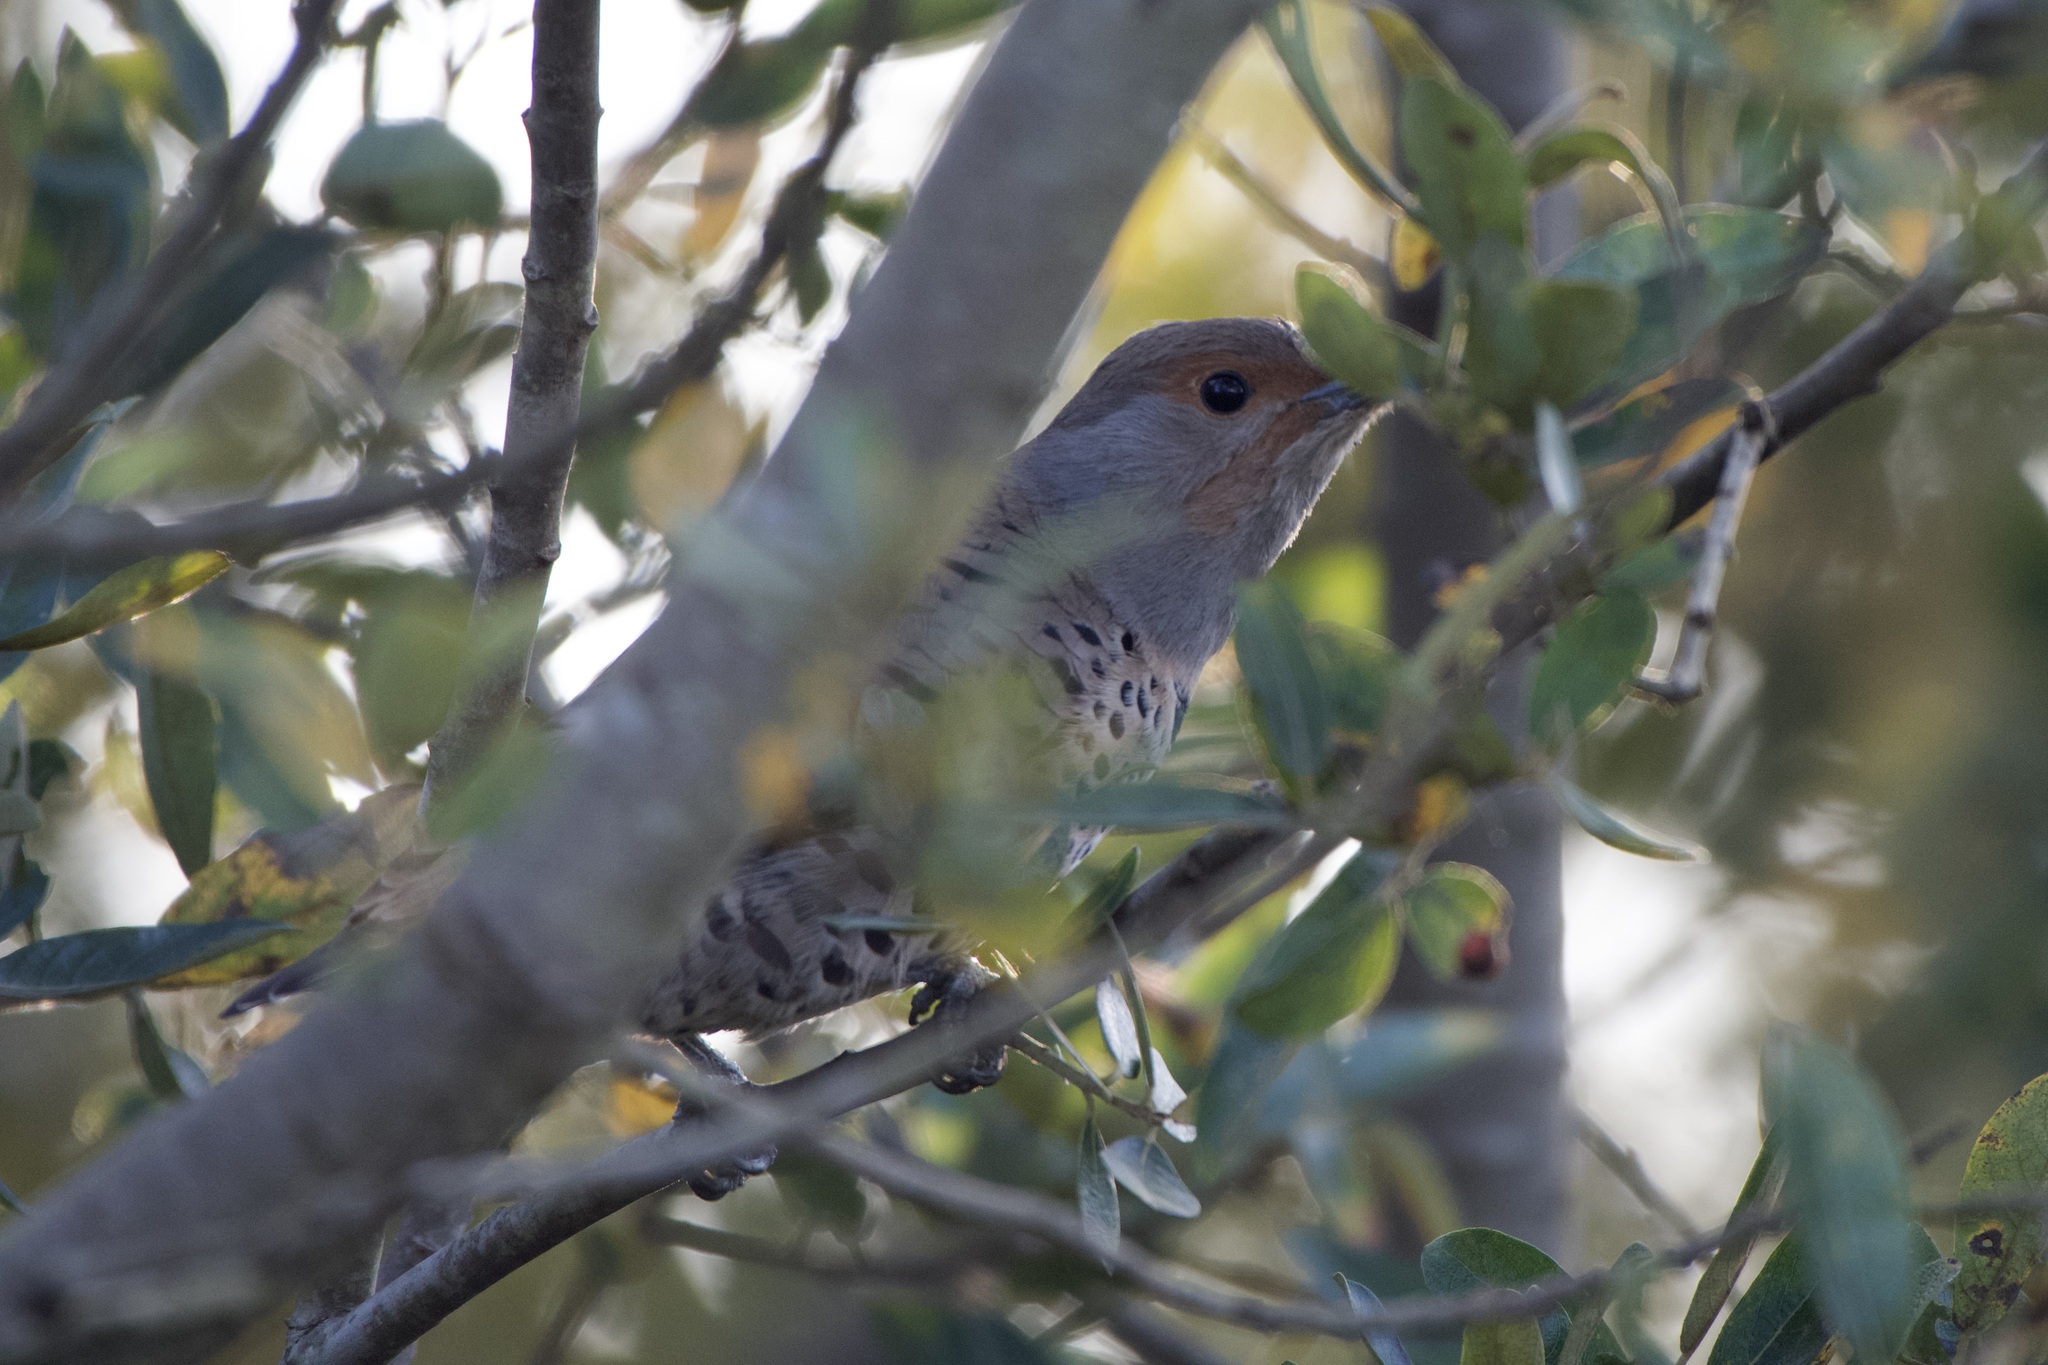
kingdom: Animalia
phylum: Chordata
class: Aves
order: Piciformes
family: Picidae
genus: Colaptes
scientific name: Colaptes auratus
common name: Northern flicker
